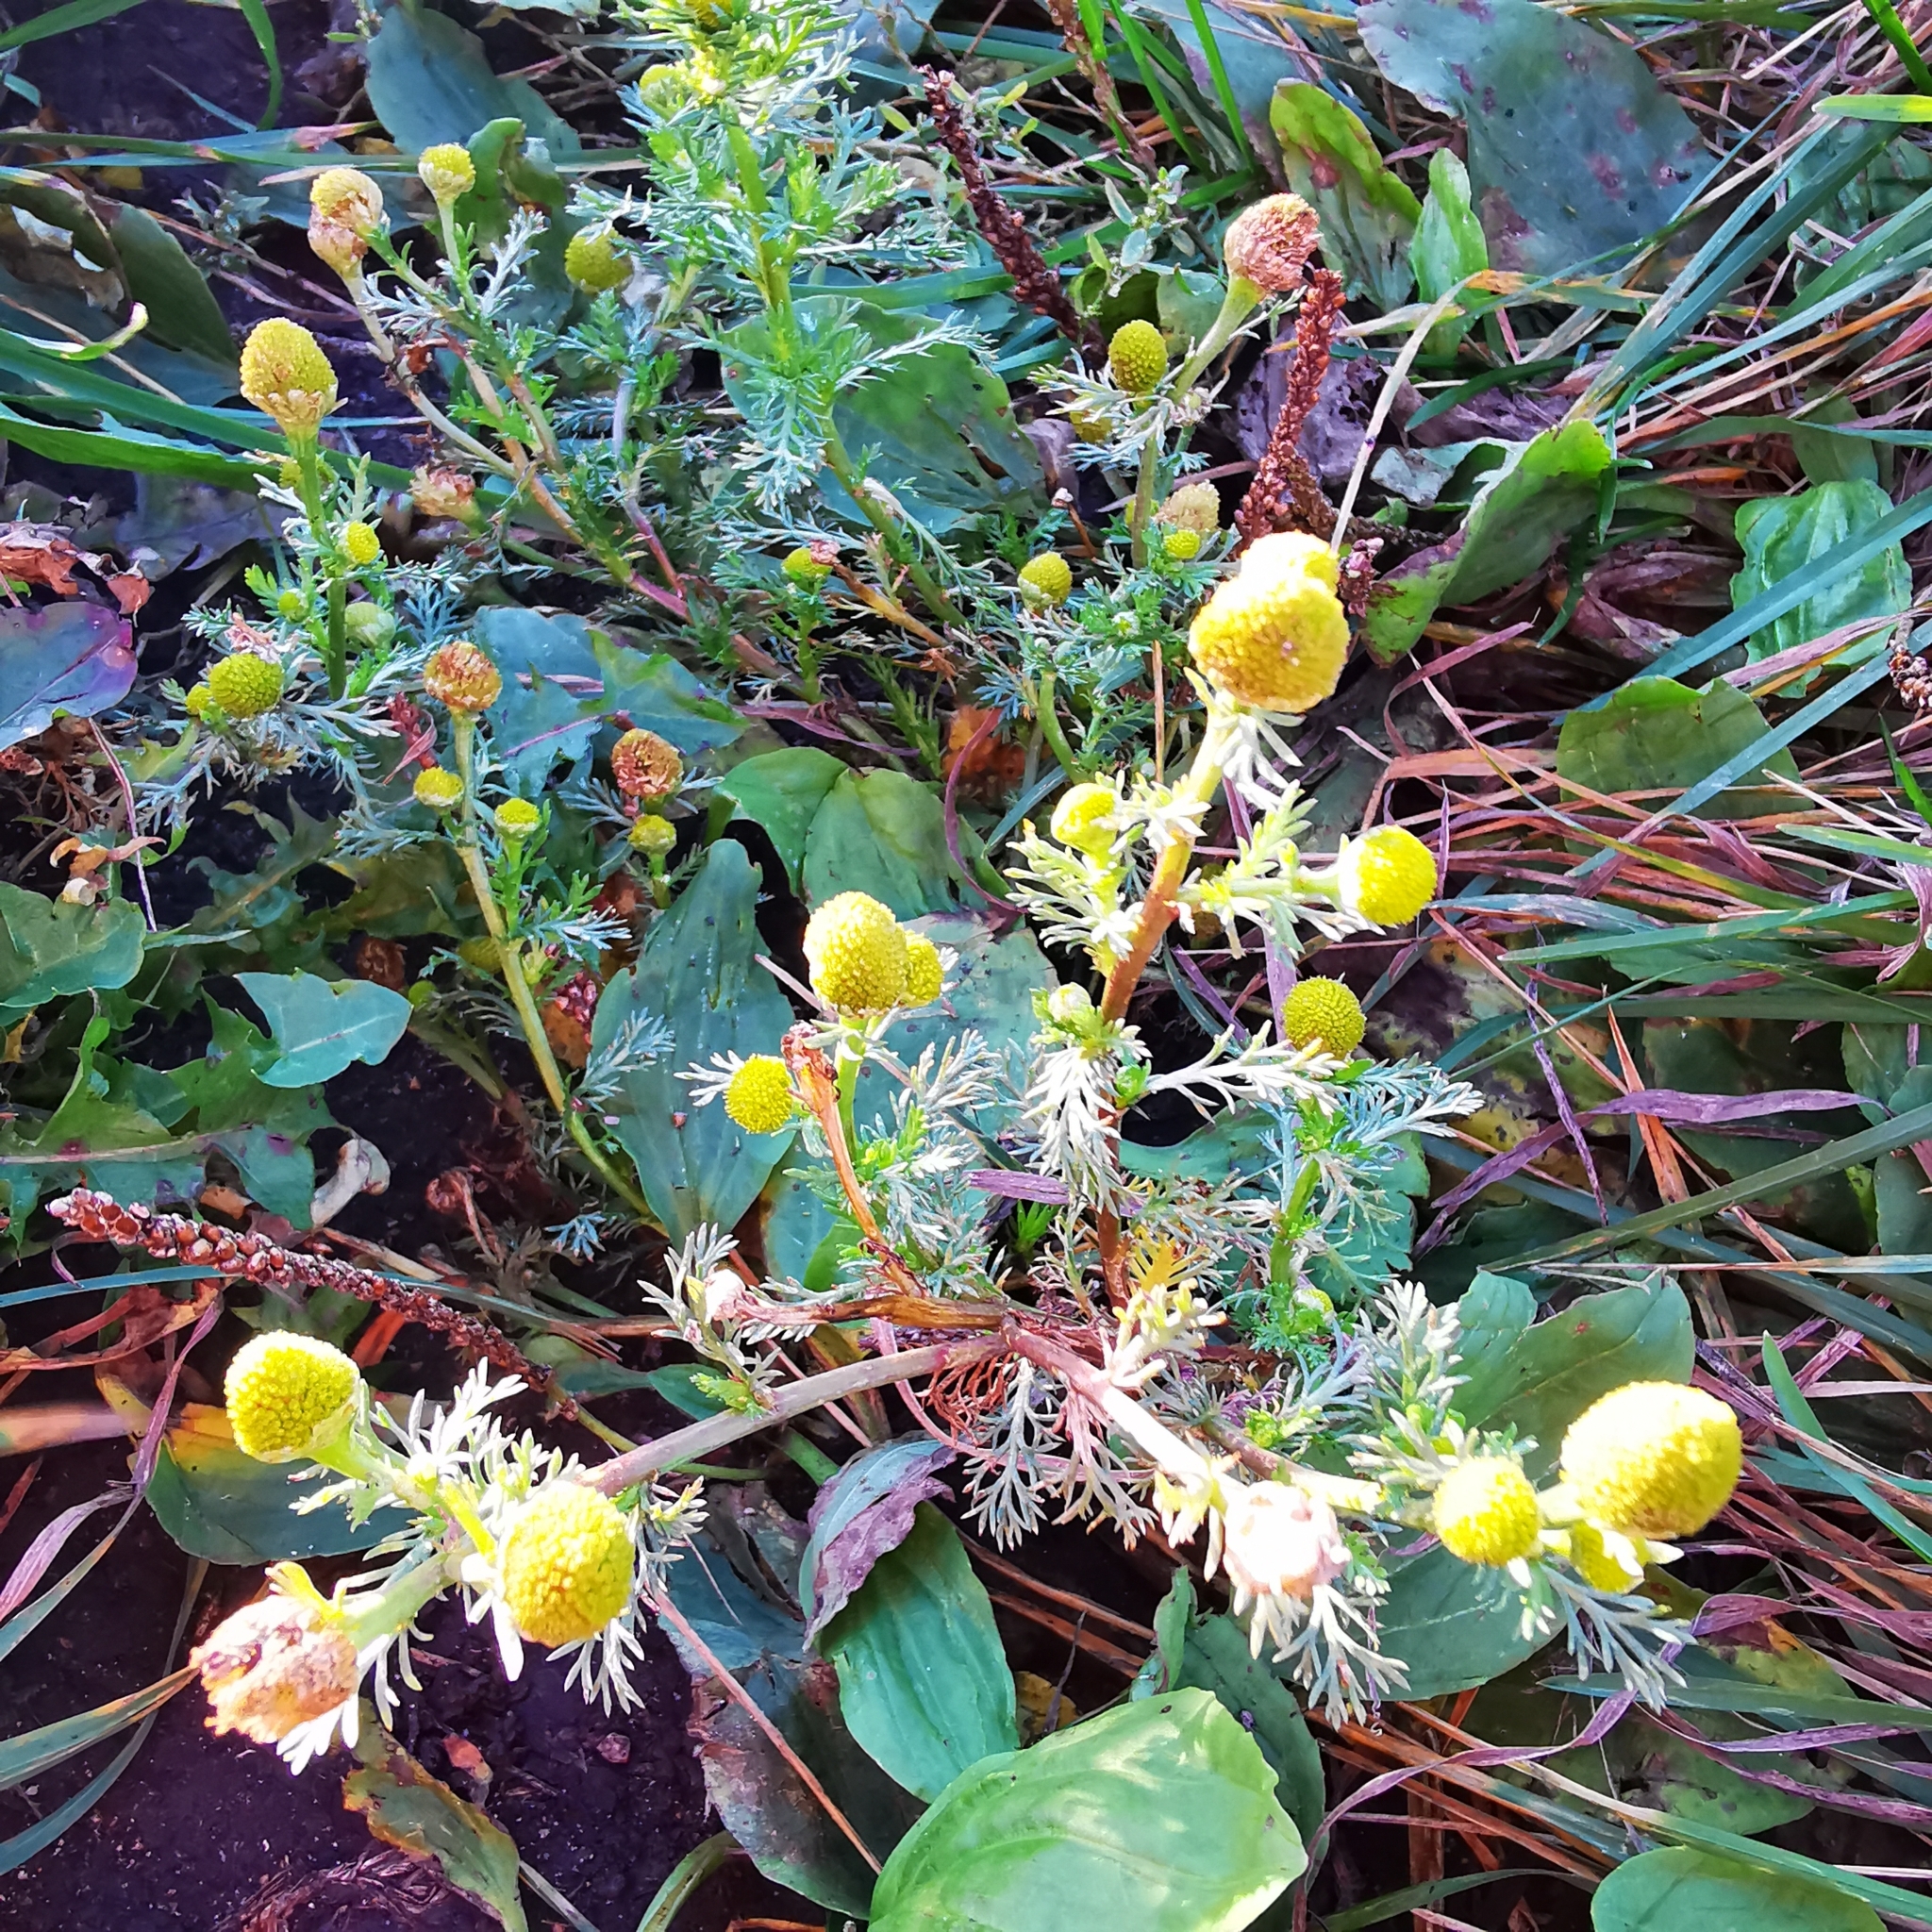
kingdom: Plantae
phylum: Tracheophyta
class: Magnoliopsida
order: Asterales
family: Asteraceae
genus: Matricaria
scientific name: Matricaria discoidea
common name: Disc mayweed
